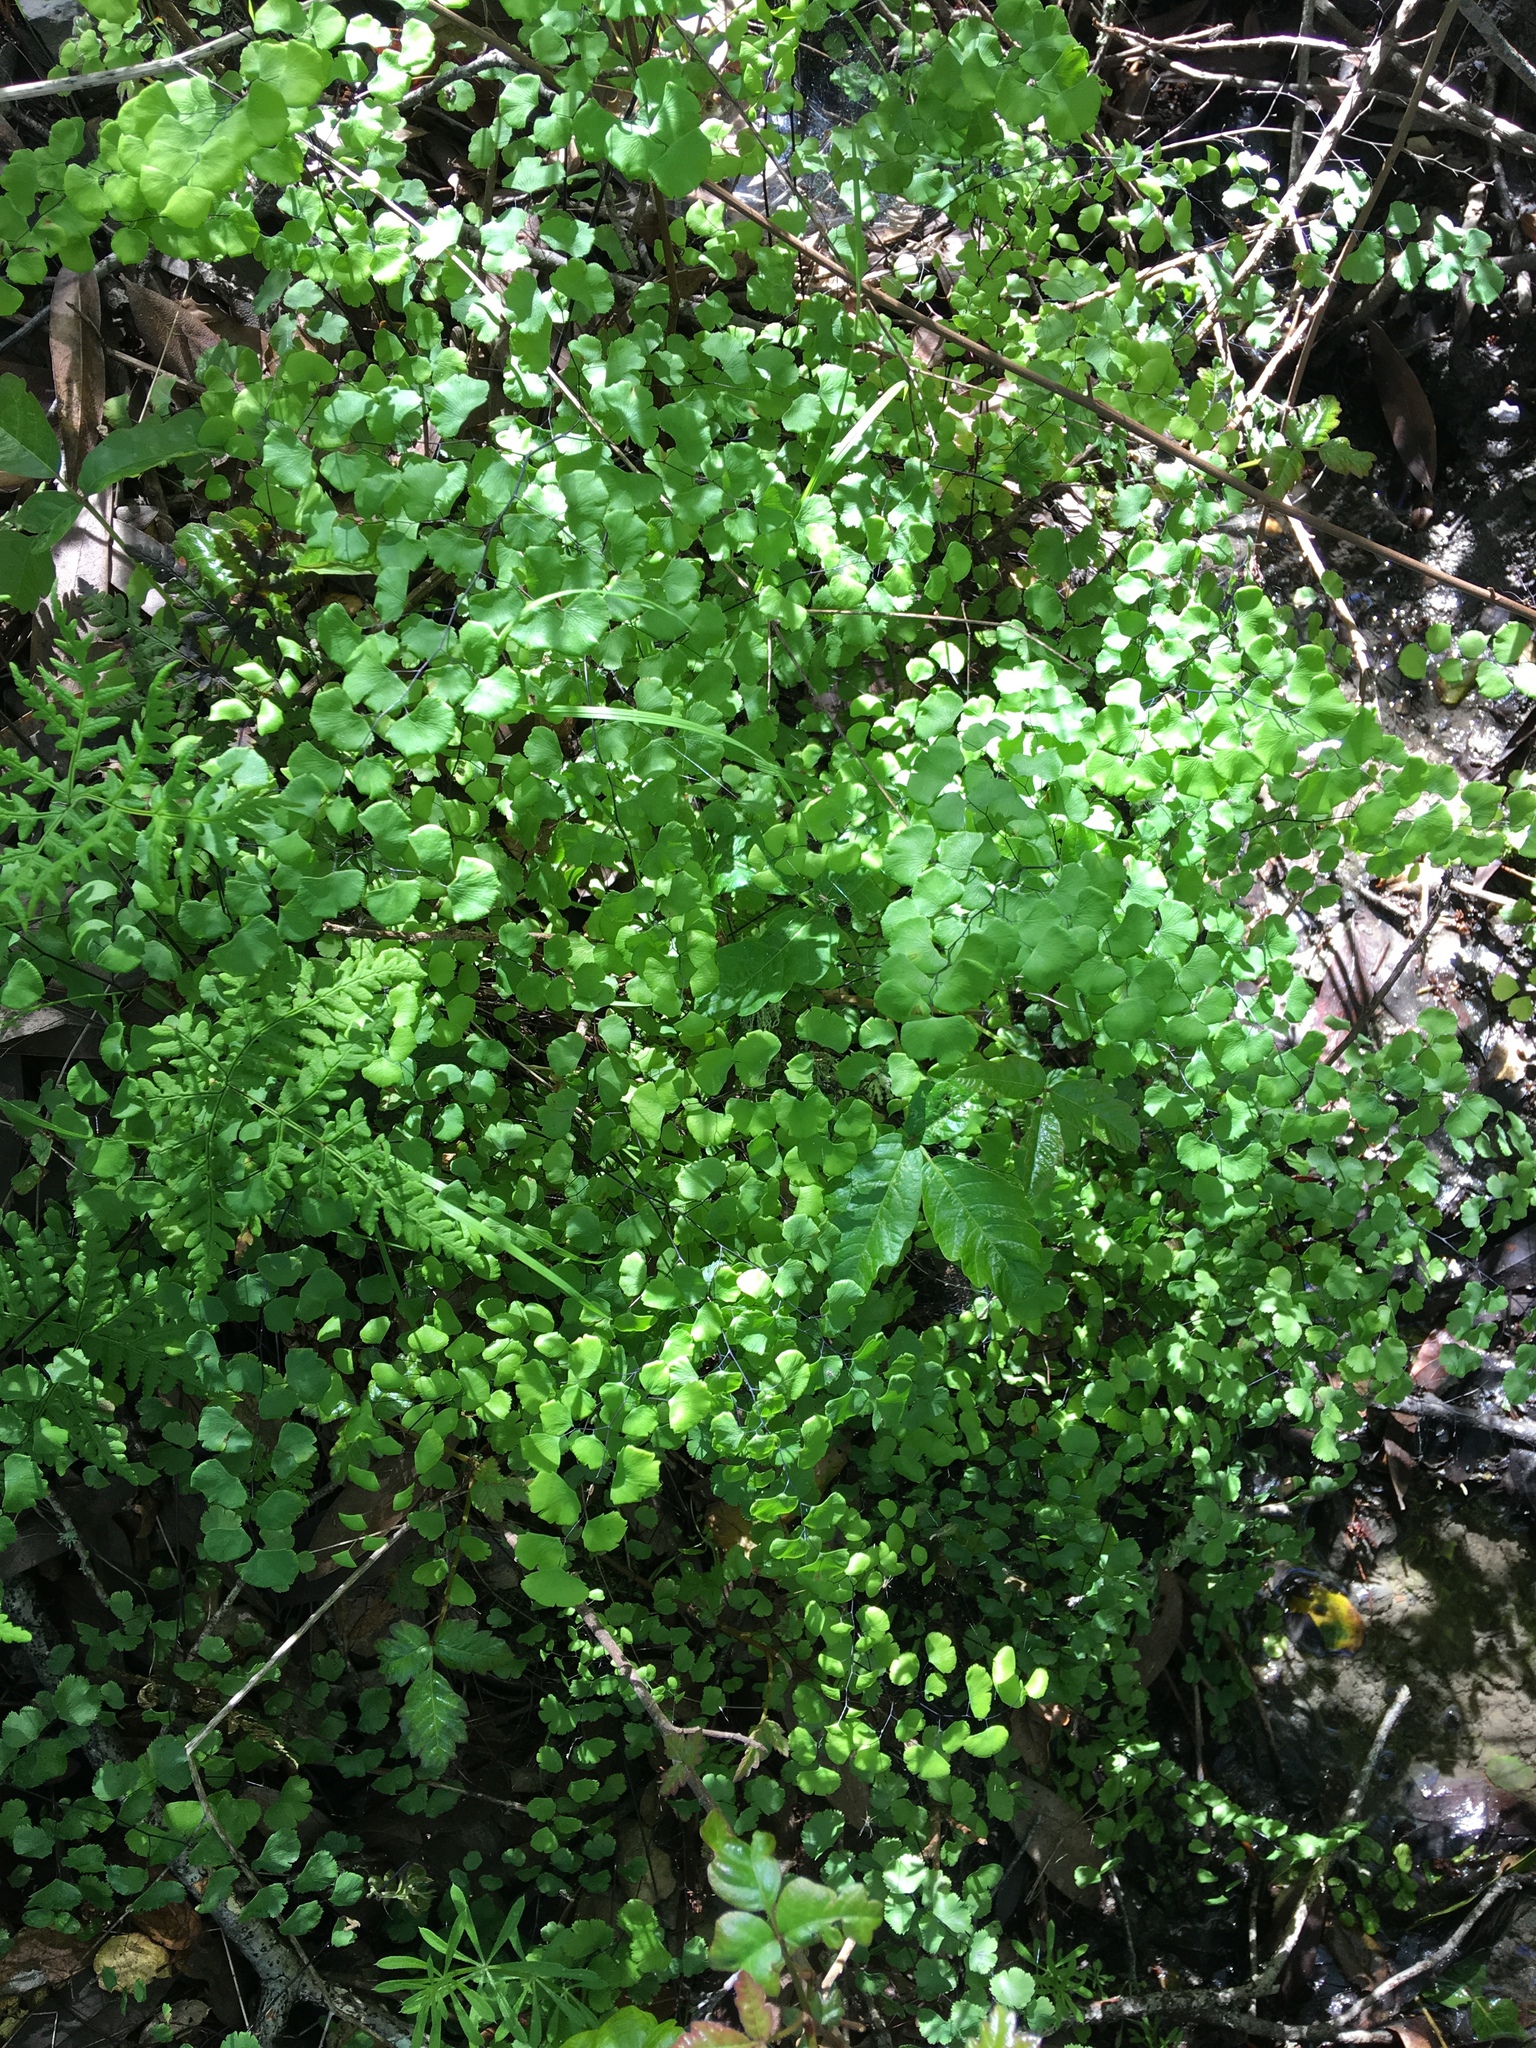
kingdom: Plantae
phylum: Tracheophyta
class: Polypodiopsida
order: Polypodiales
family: Pteridaceae
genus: Adiantum
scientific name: Adiantum jordanii
